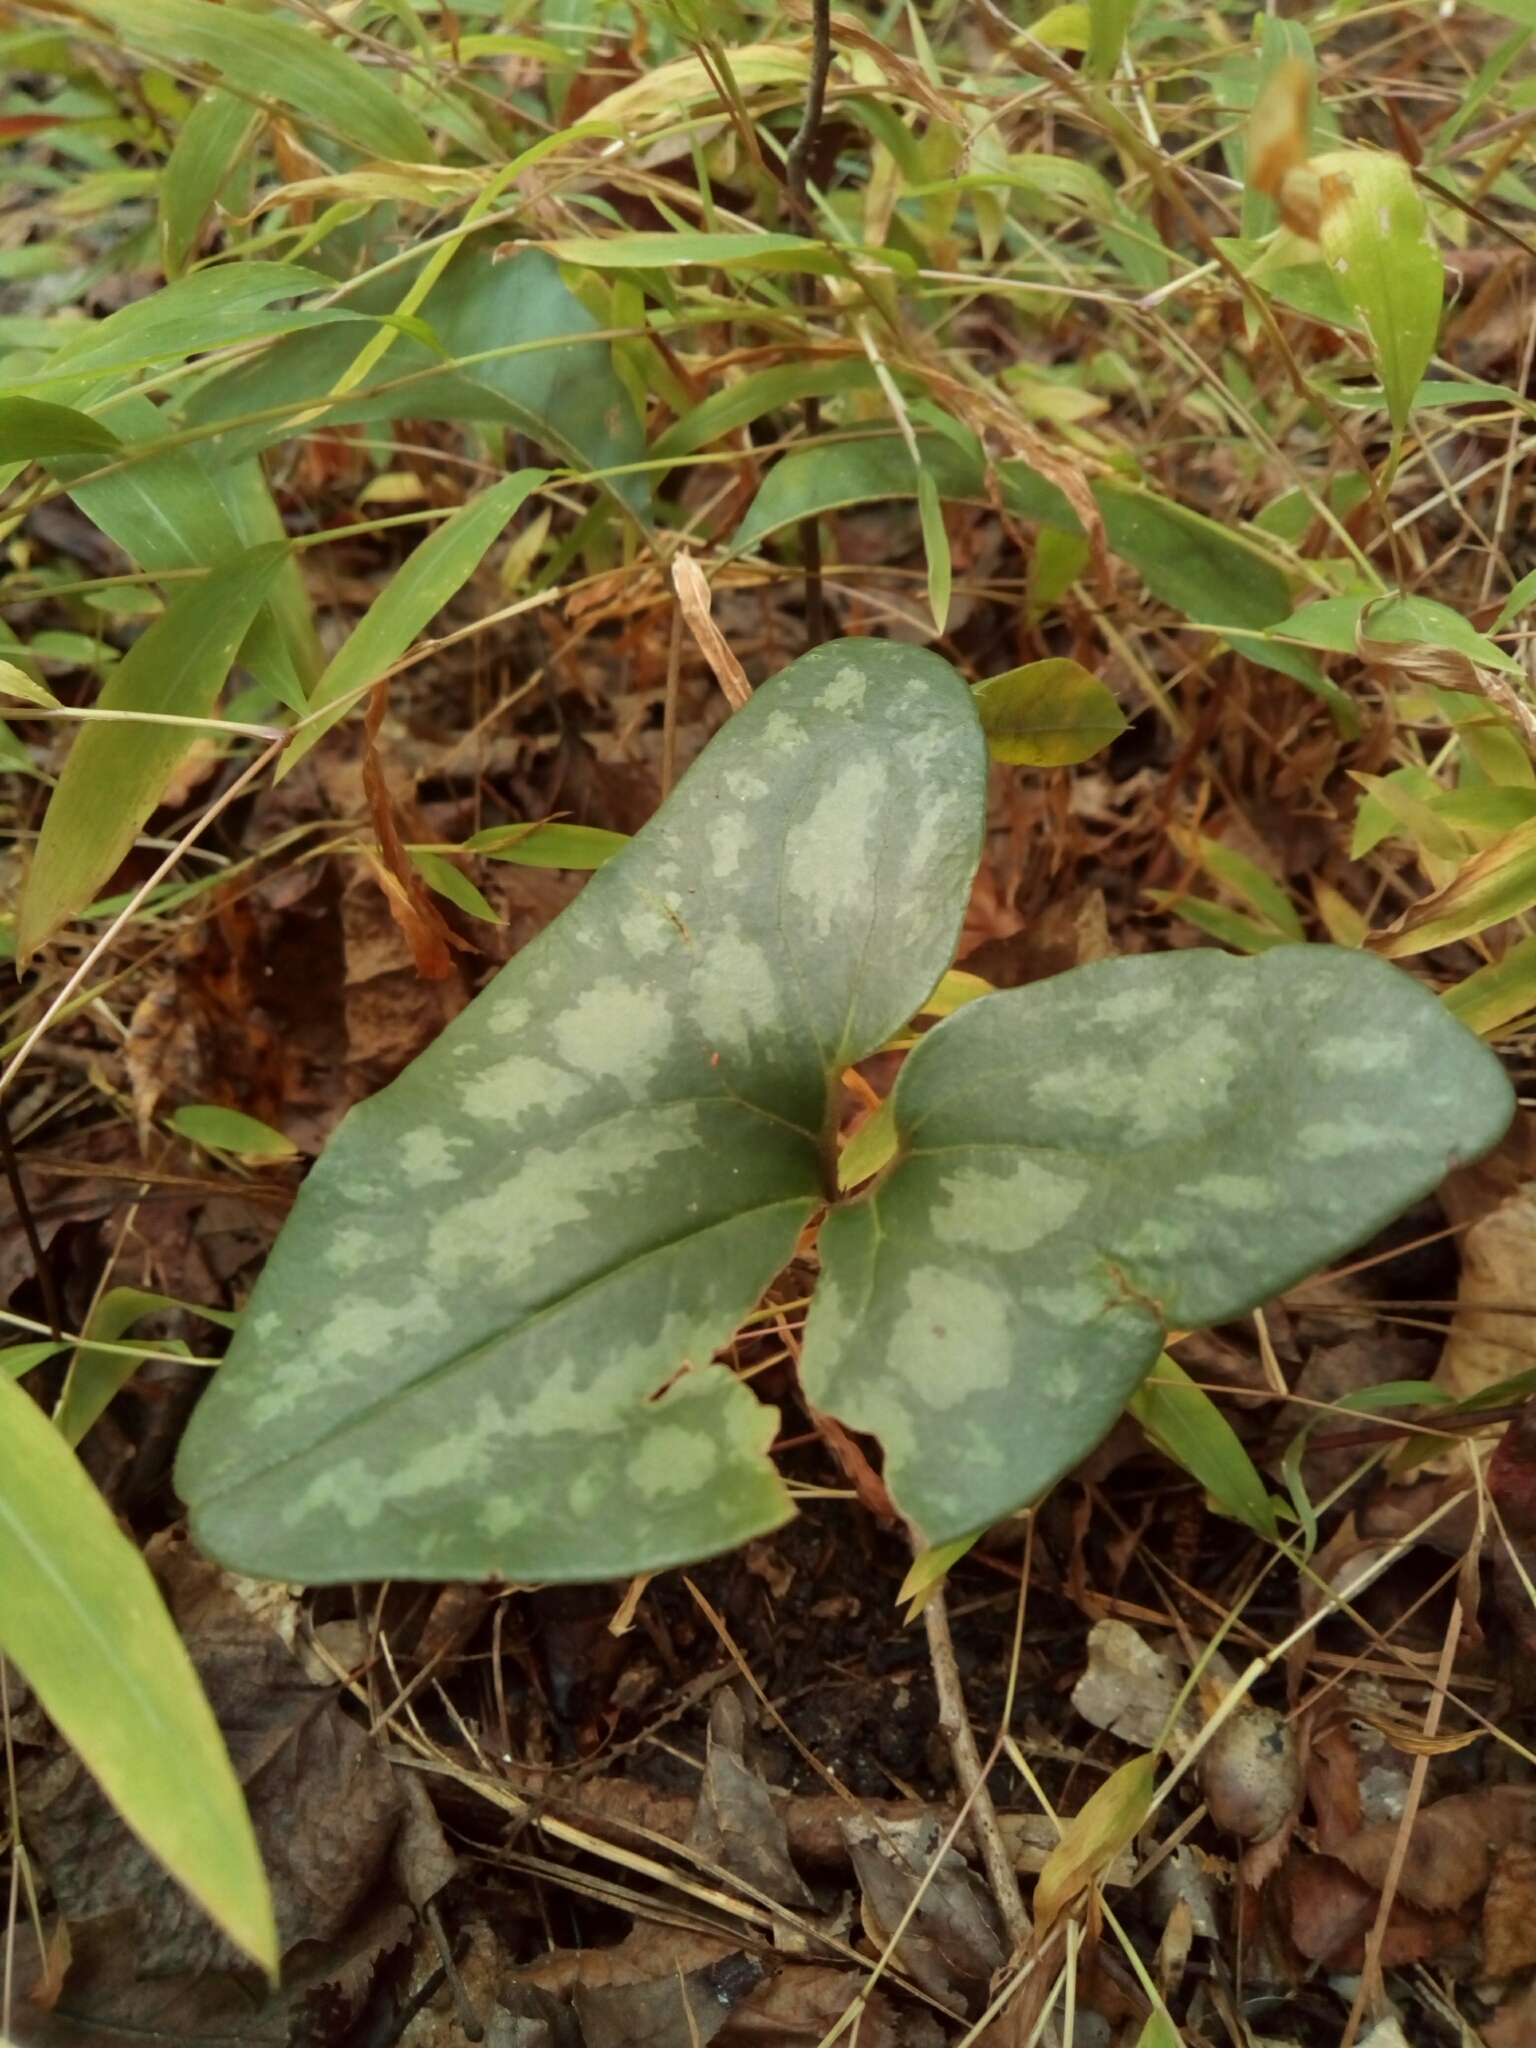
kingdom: Plantae
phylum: Tracheophyta
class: Magnoliopsida
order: Piperales
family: Aristolochiaceae
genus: Hexastylis
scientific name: Hexastylis arifolia
